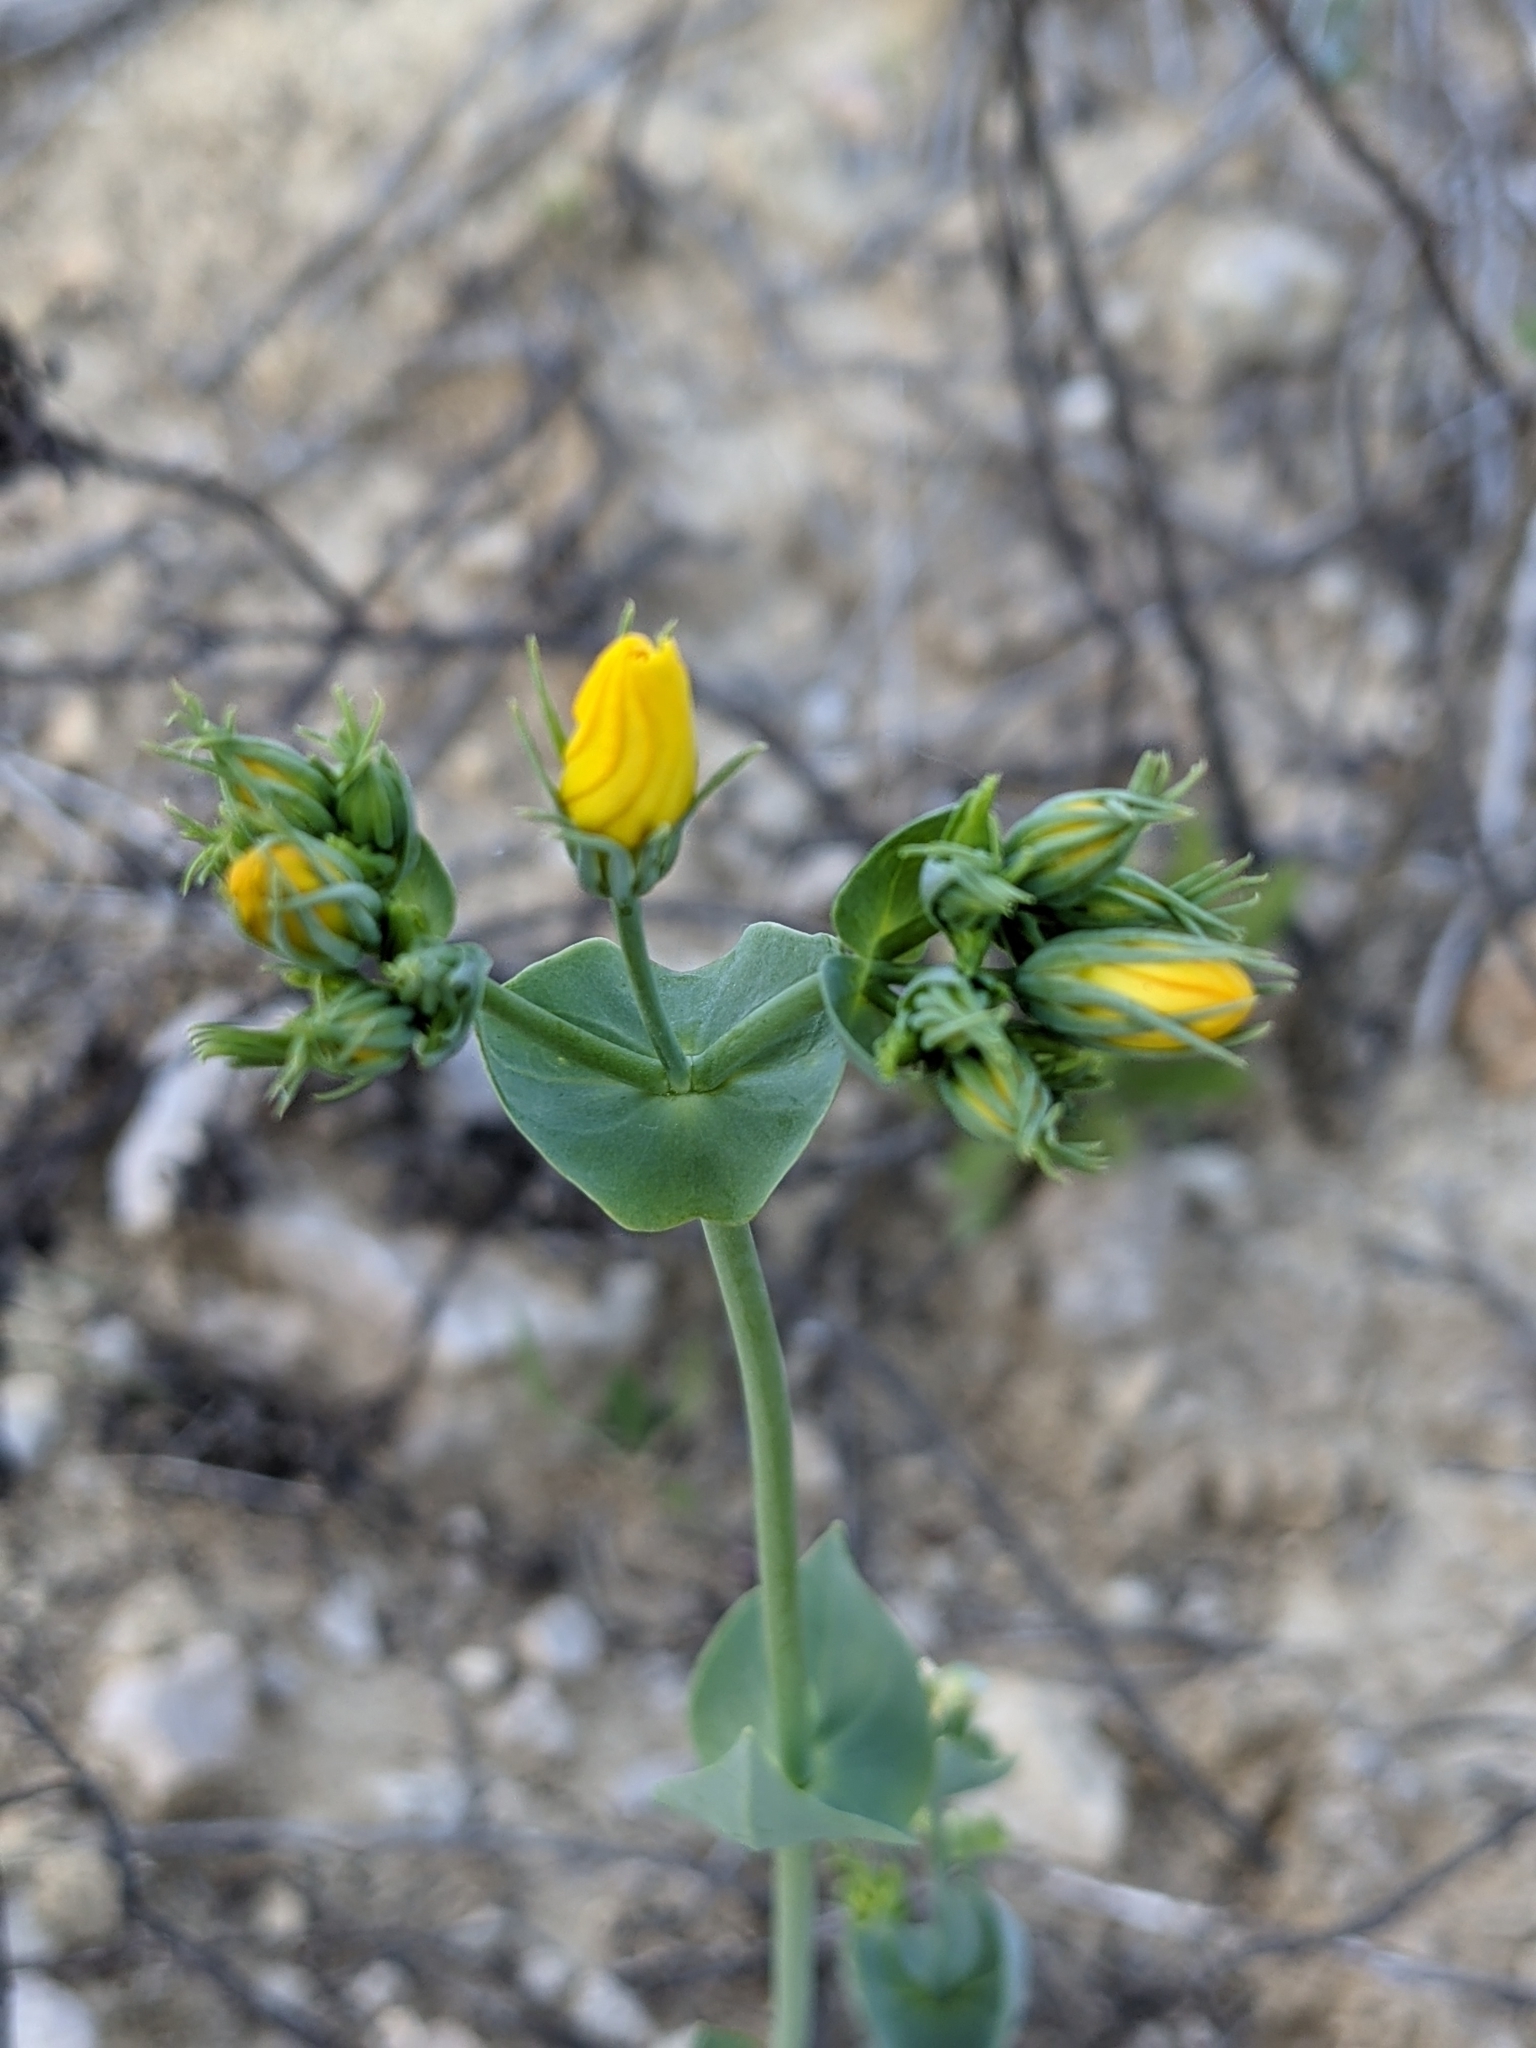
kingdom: Plantae
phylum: Tracheophyta
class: Magnoliopsida
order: Gentianales
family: Gentianaceae
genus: Blackstonia
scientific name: Blackstonia perfoliata
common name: Yellow-wort
